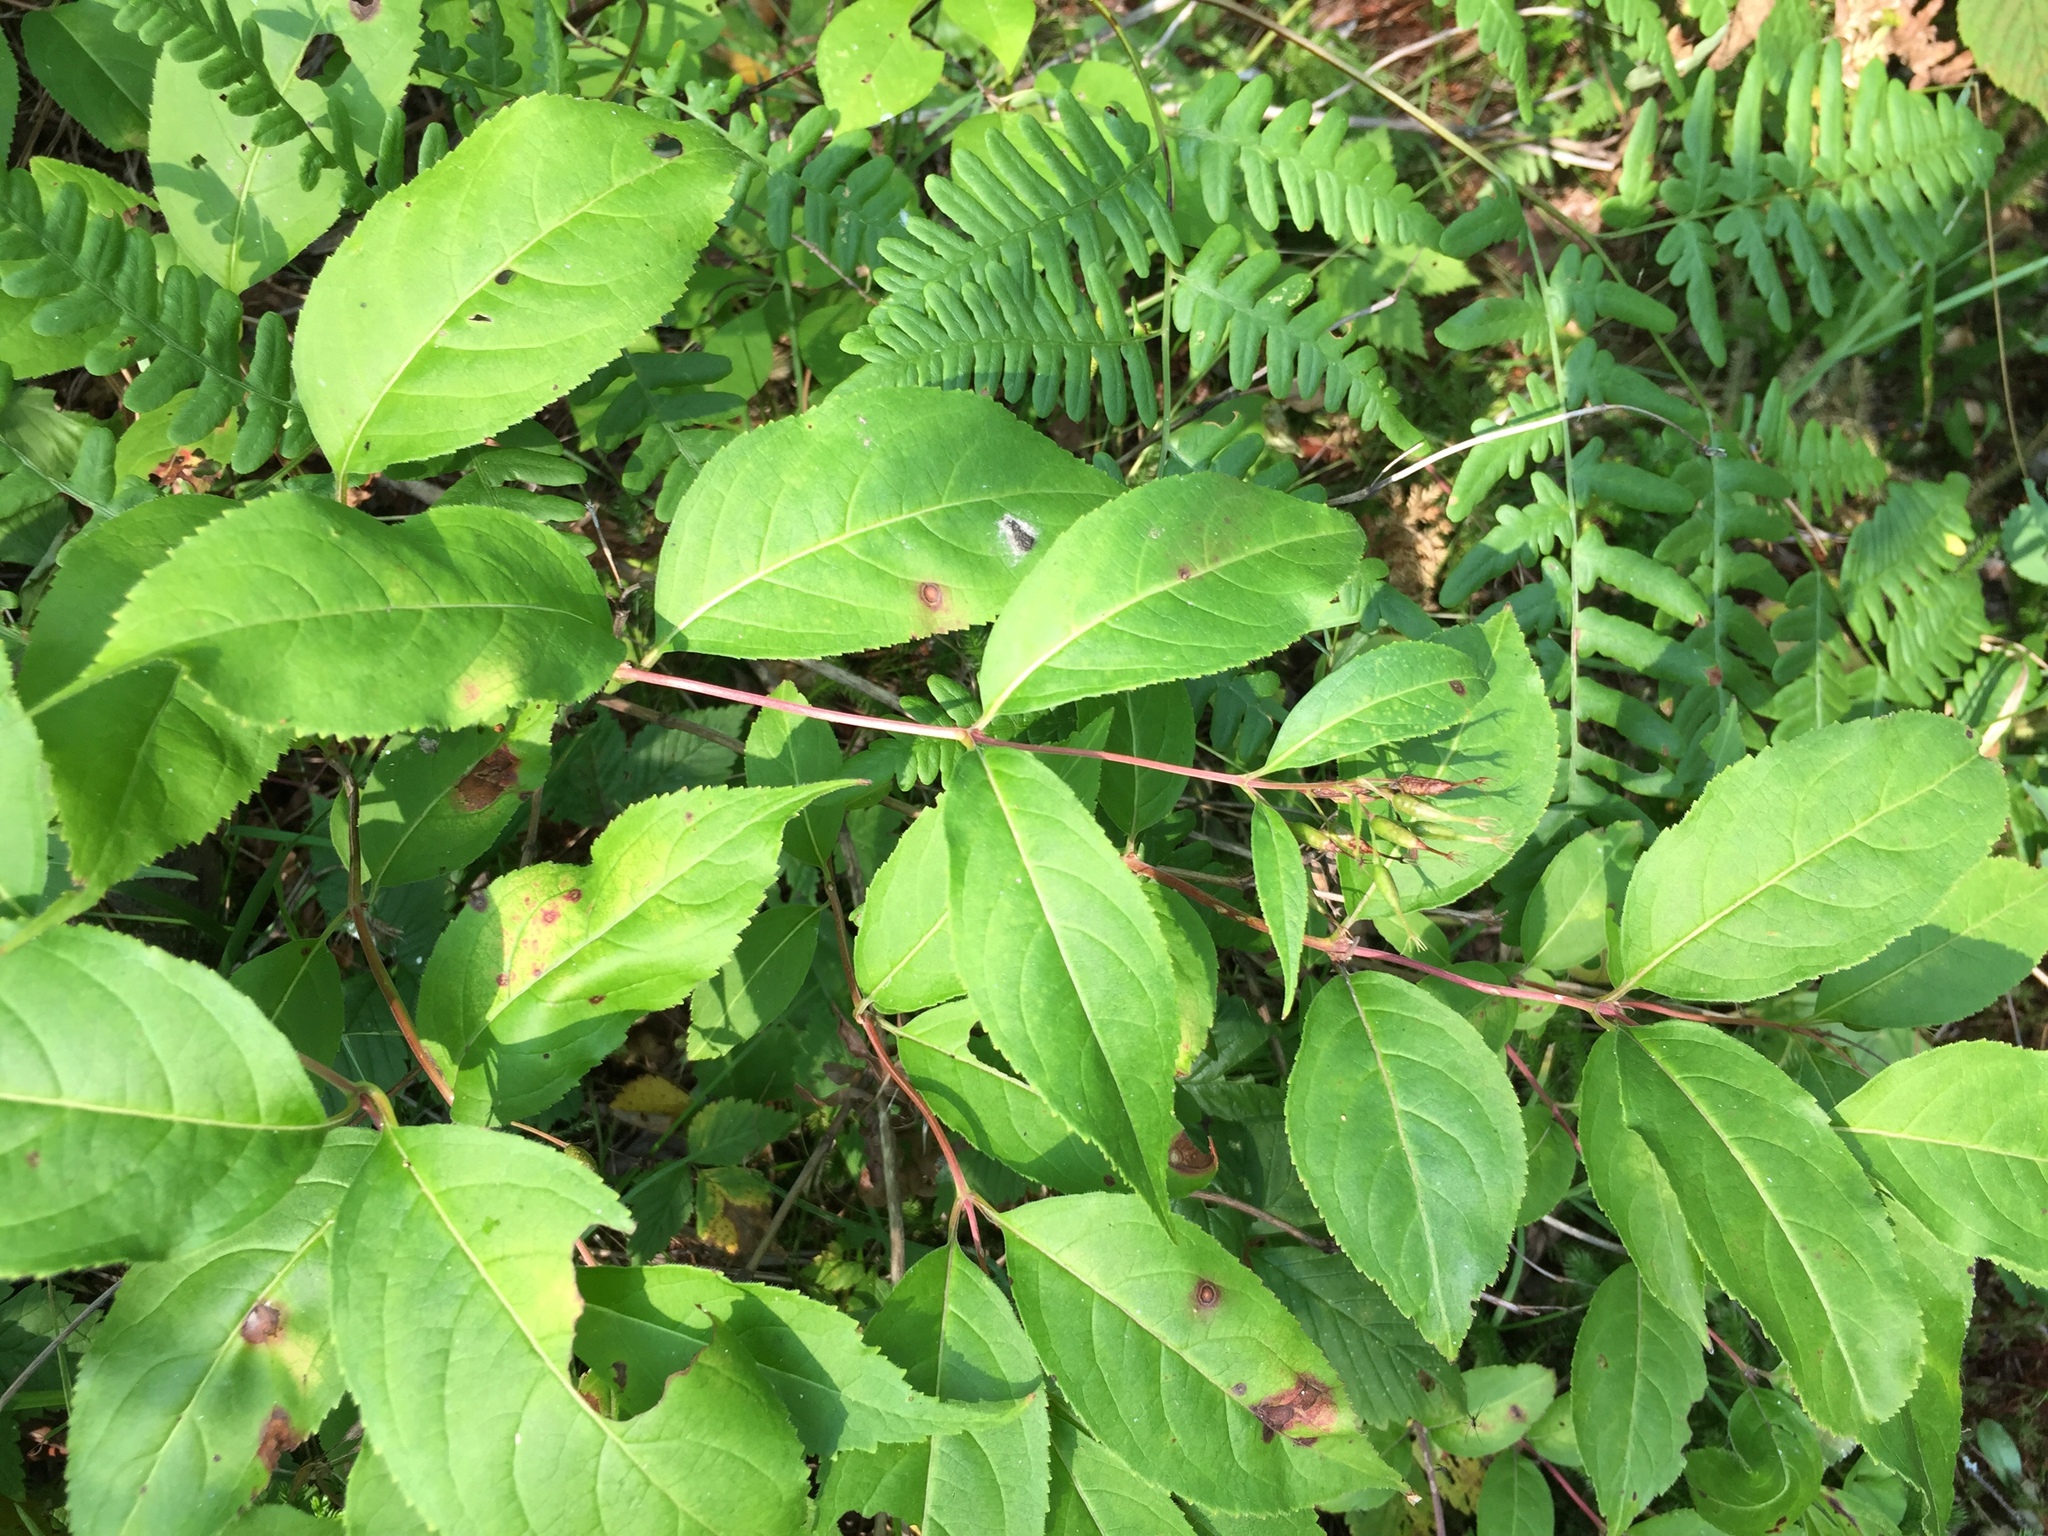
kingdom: Plantae
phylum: Tracheophyta
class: Magnoliopsida
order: Dipsacales
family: Caprifoliaceae
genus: Diervilla
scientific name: Diervilla lonicera
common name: Bush-honeysuckle
